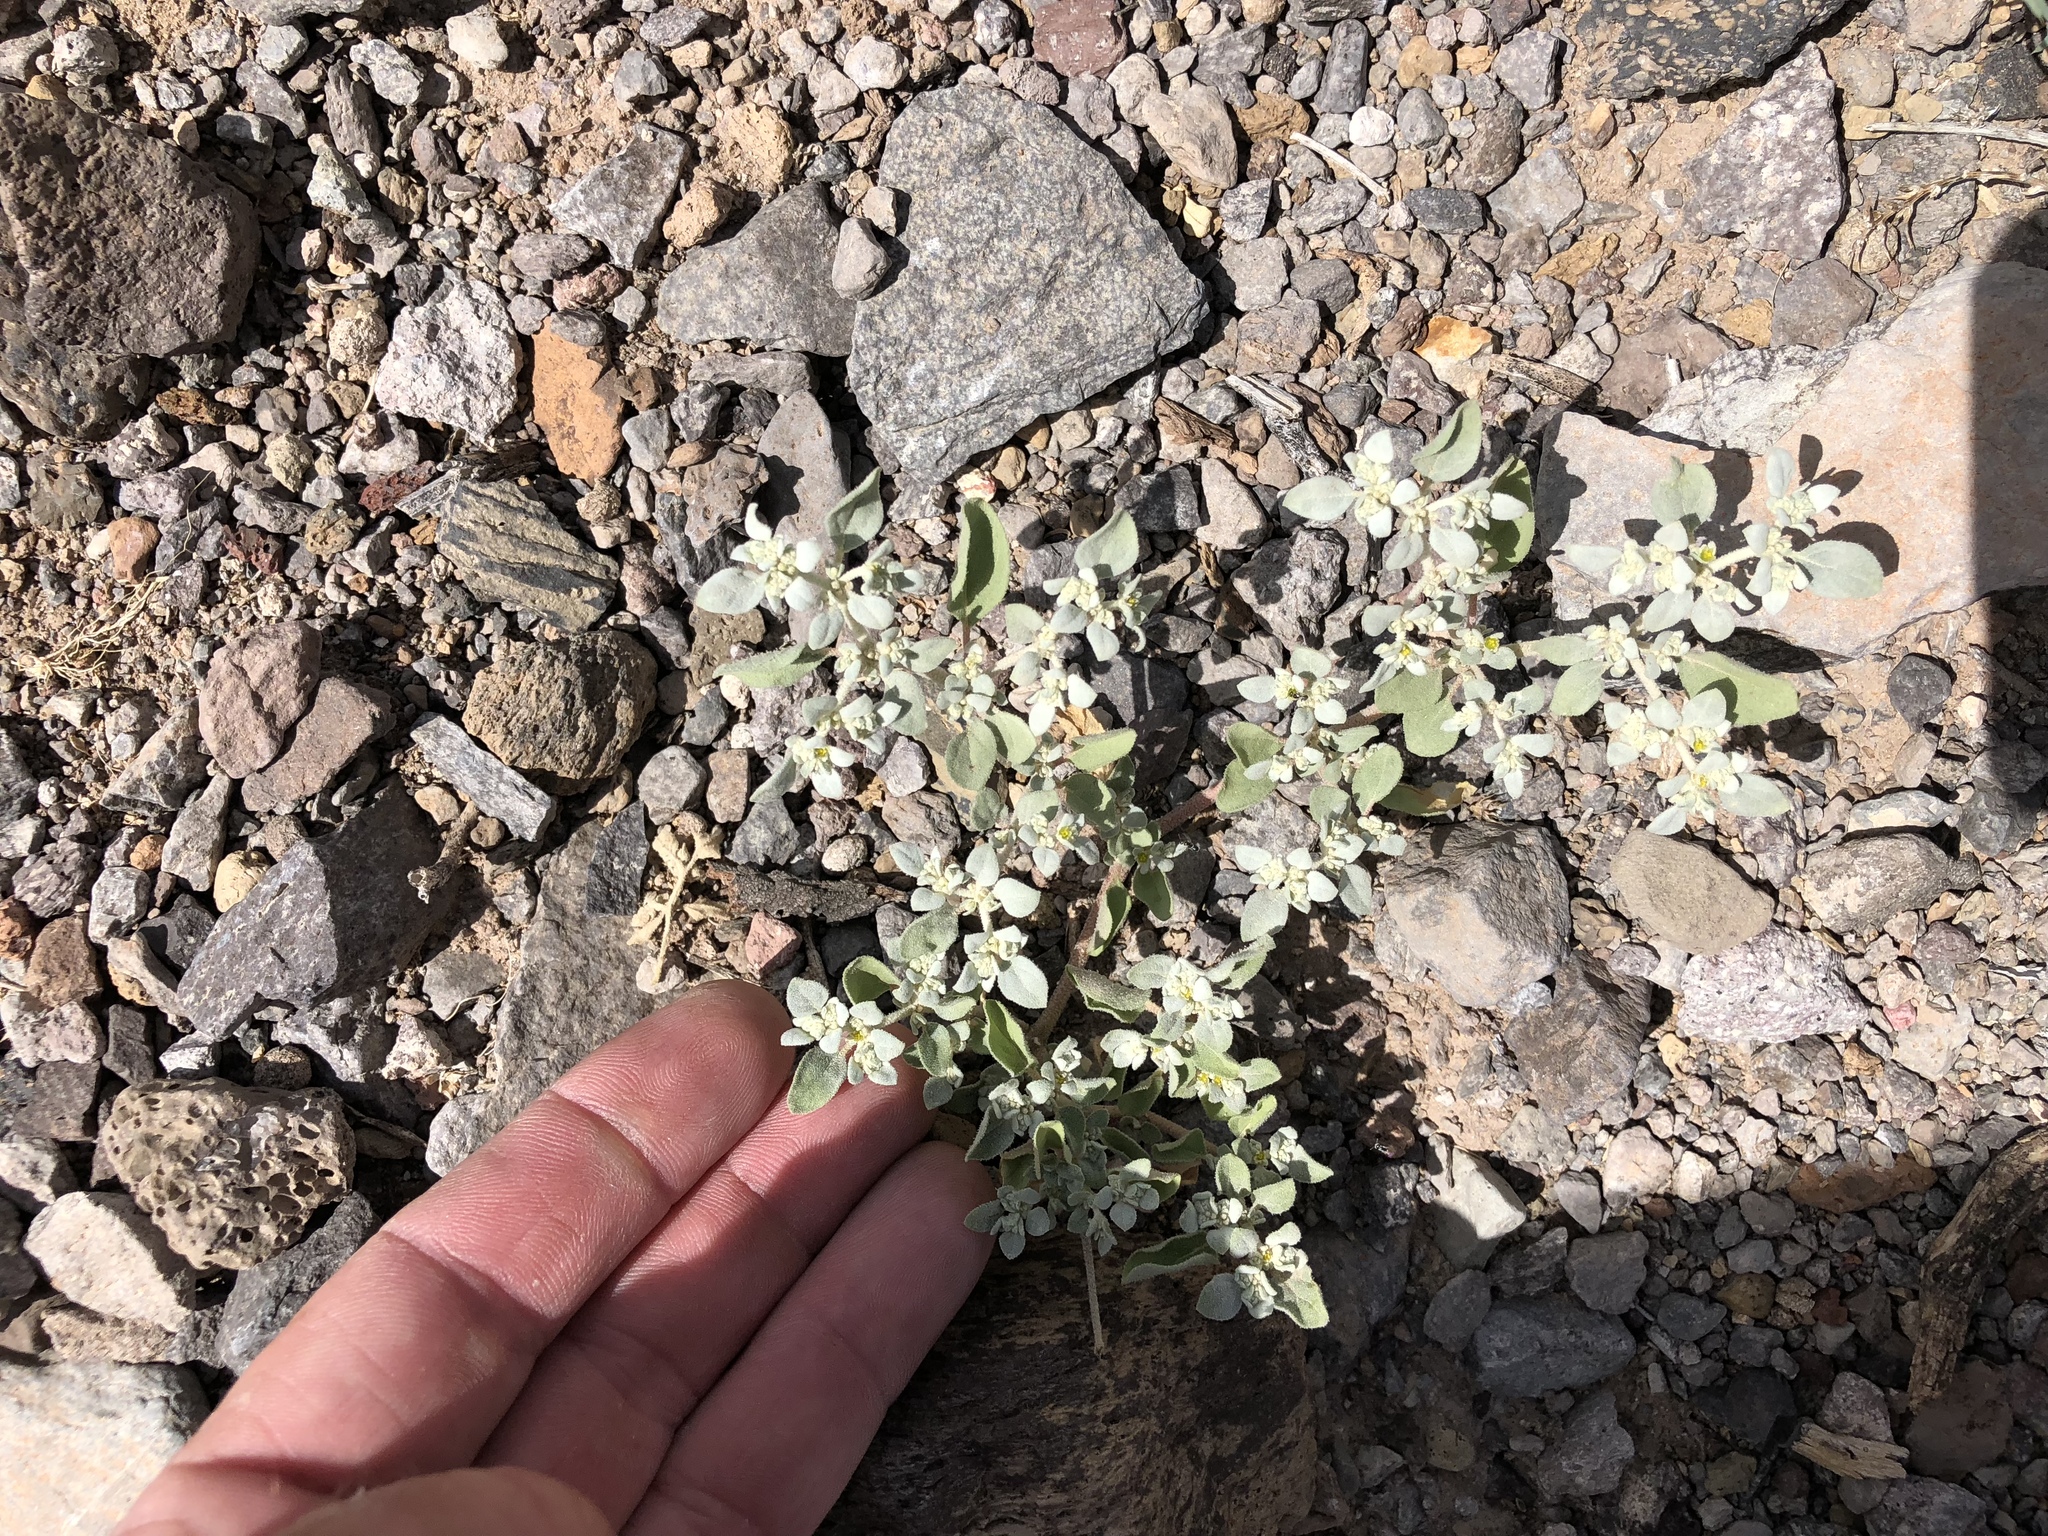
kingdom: Plantae
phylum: Tracheophyta
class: Magnoliopsida
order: Caryophyllales
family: Amaranthaceae
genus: Tidestromia
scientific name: Tidestromia lanuginosa
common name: Woolly tidestromia
